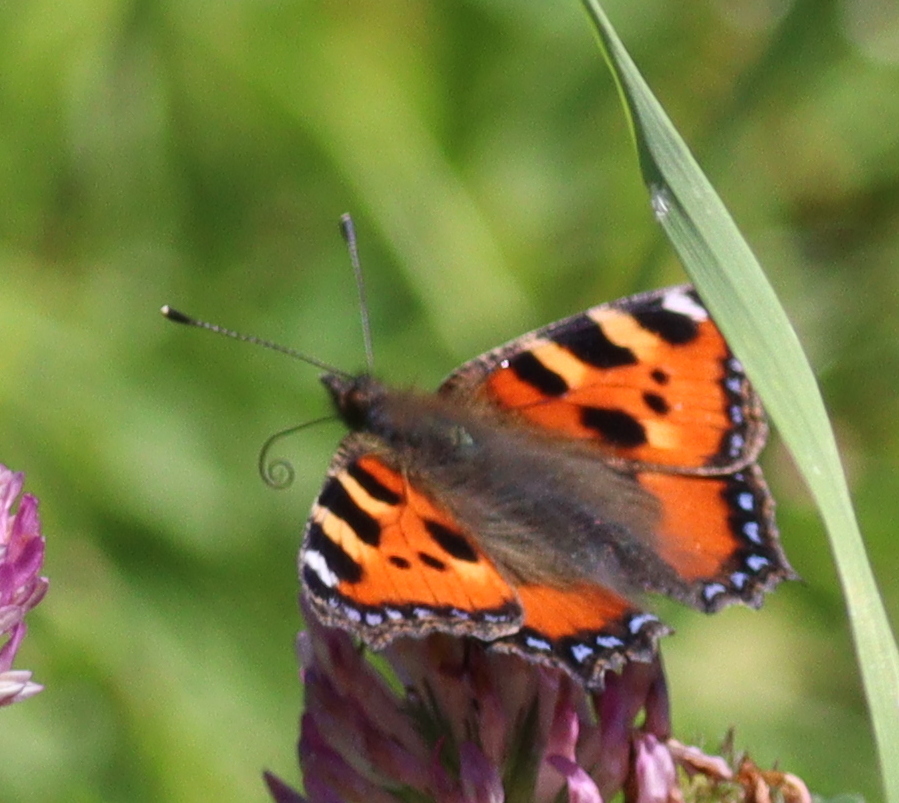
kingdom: Animalia
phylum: Arthropoda
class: Insecta
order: Lepidoptera
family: Nymphalidae
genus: Aglais
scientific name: Aglais urticae
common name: Small tortoiseshell
